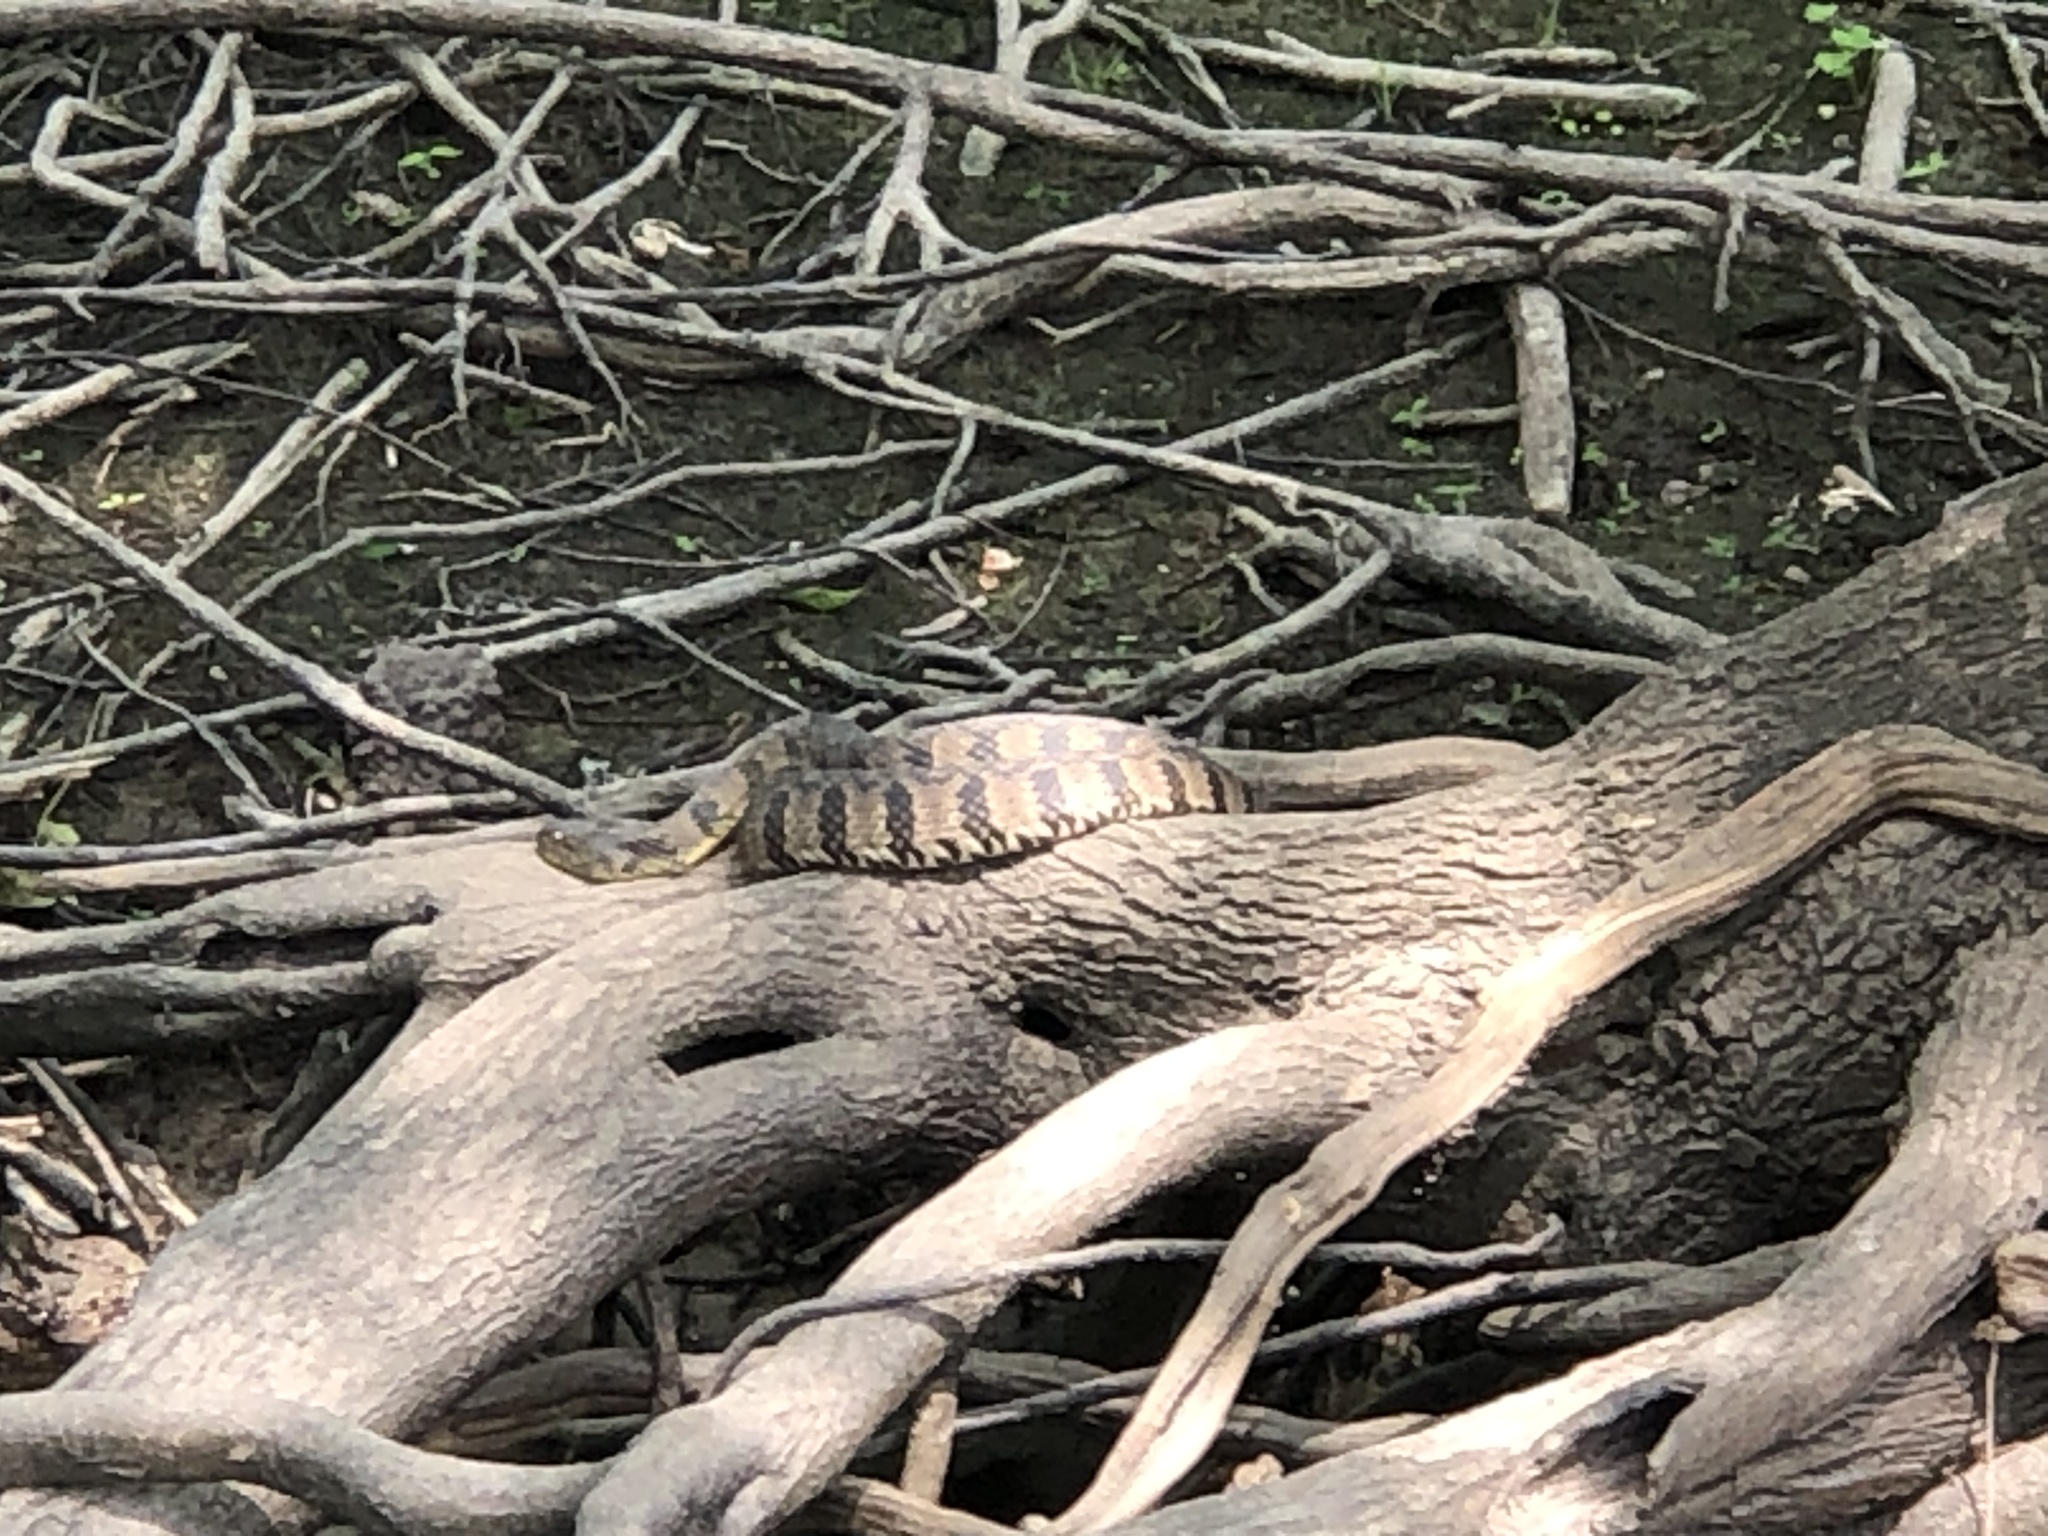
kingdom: Animalia
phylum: Chordata
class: Squamata
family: Colubridae
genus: Nerodia
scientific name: Nerodia rhombifer
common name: Diamondback water snake
